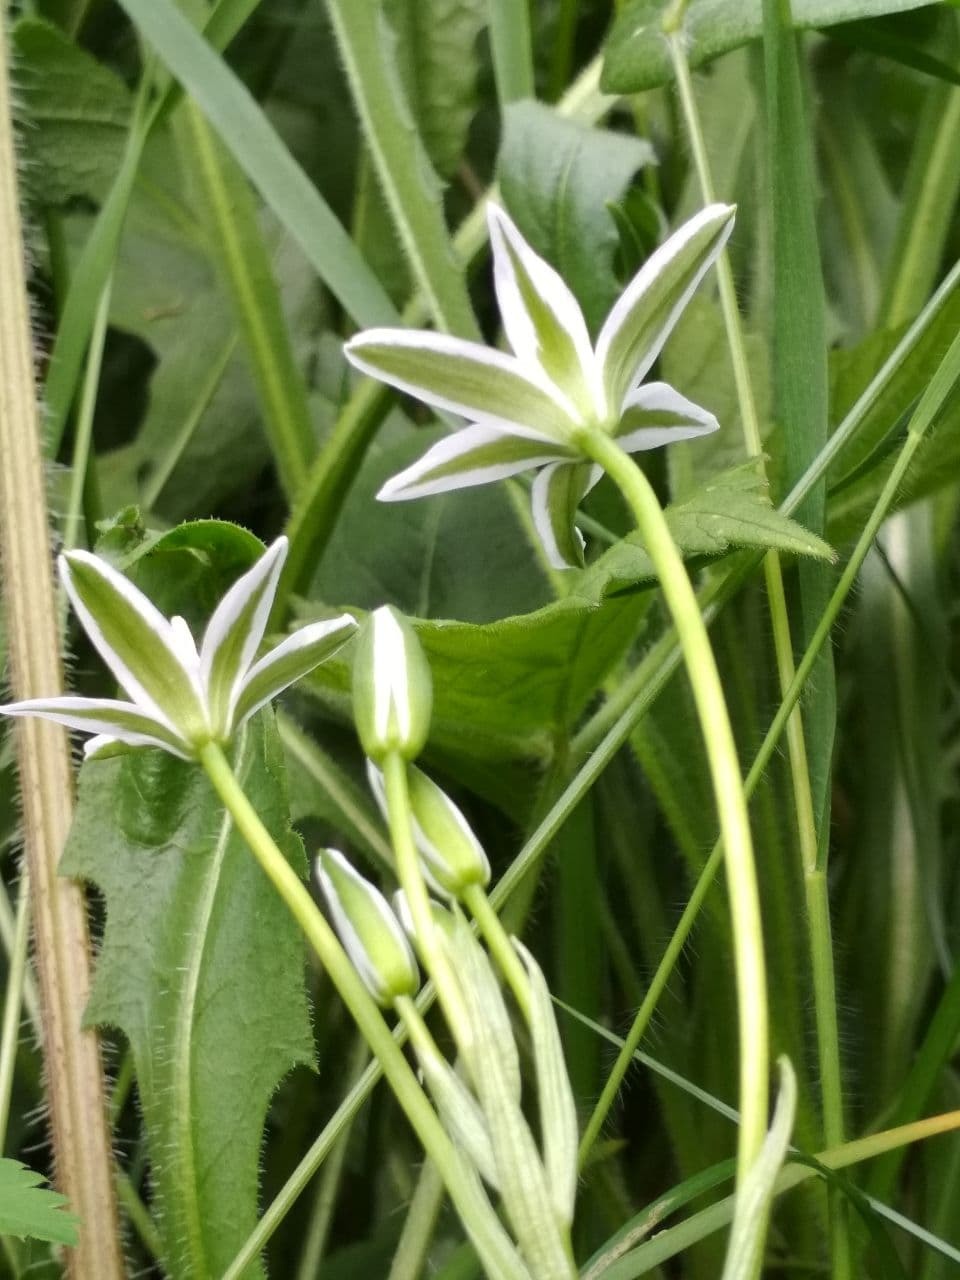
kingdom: Plantae
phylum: Tracheophyta
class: Liliopsida
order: Asparagales
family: Asparagaceae
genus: Ornithogalum
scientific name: Ornithogalum umbellatum
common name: Garden star-of-bethlehem
